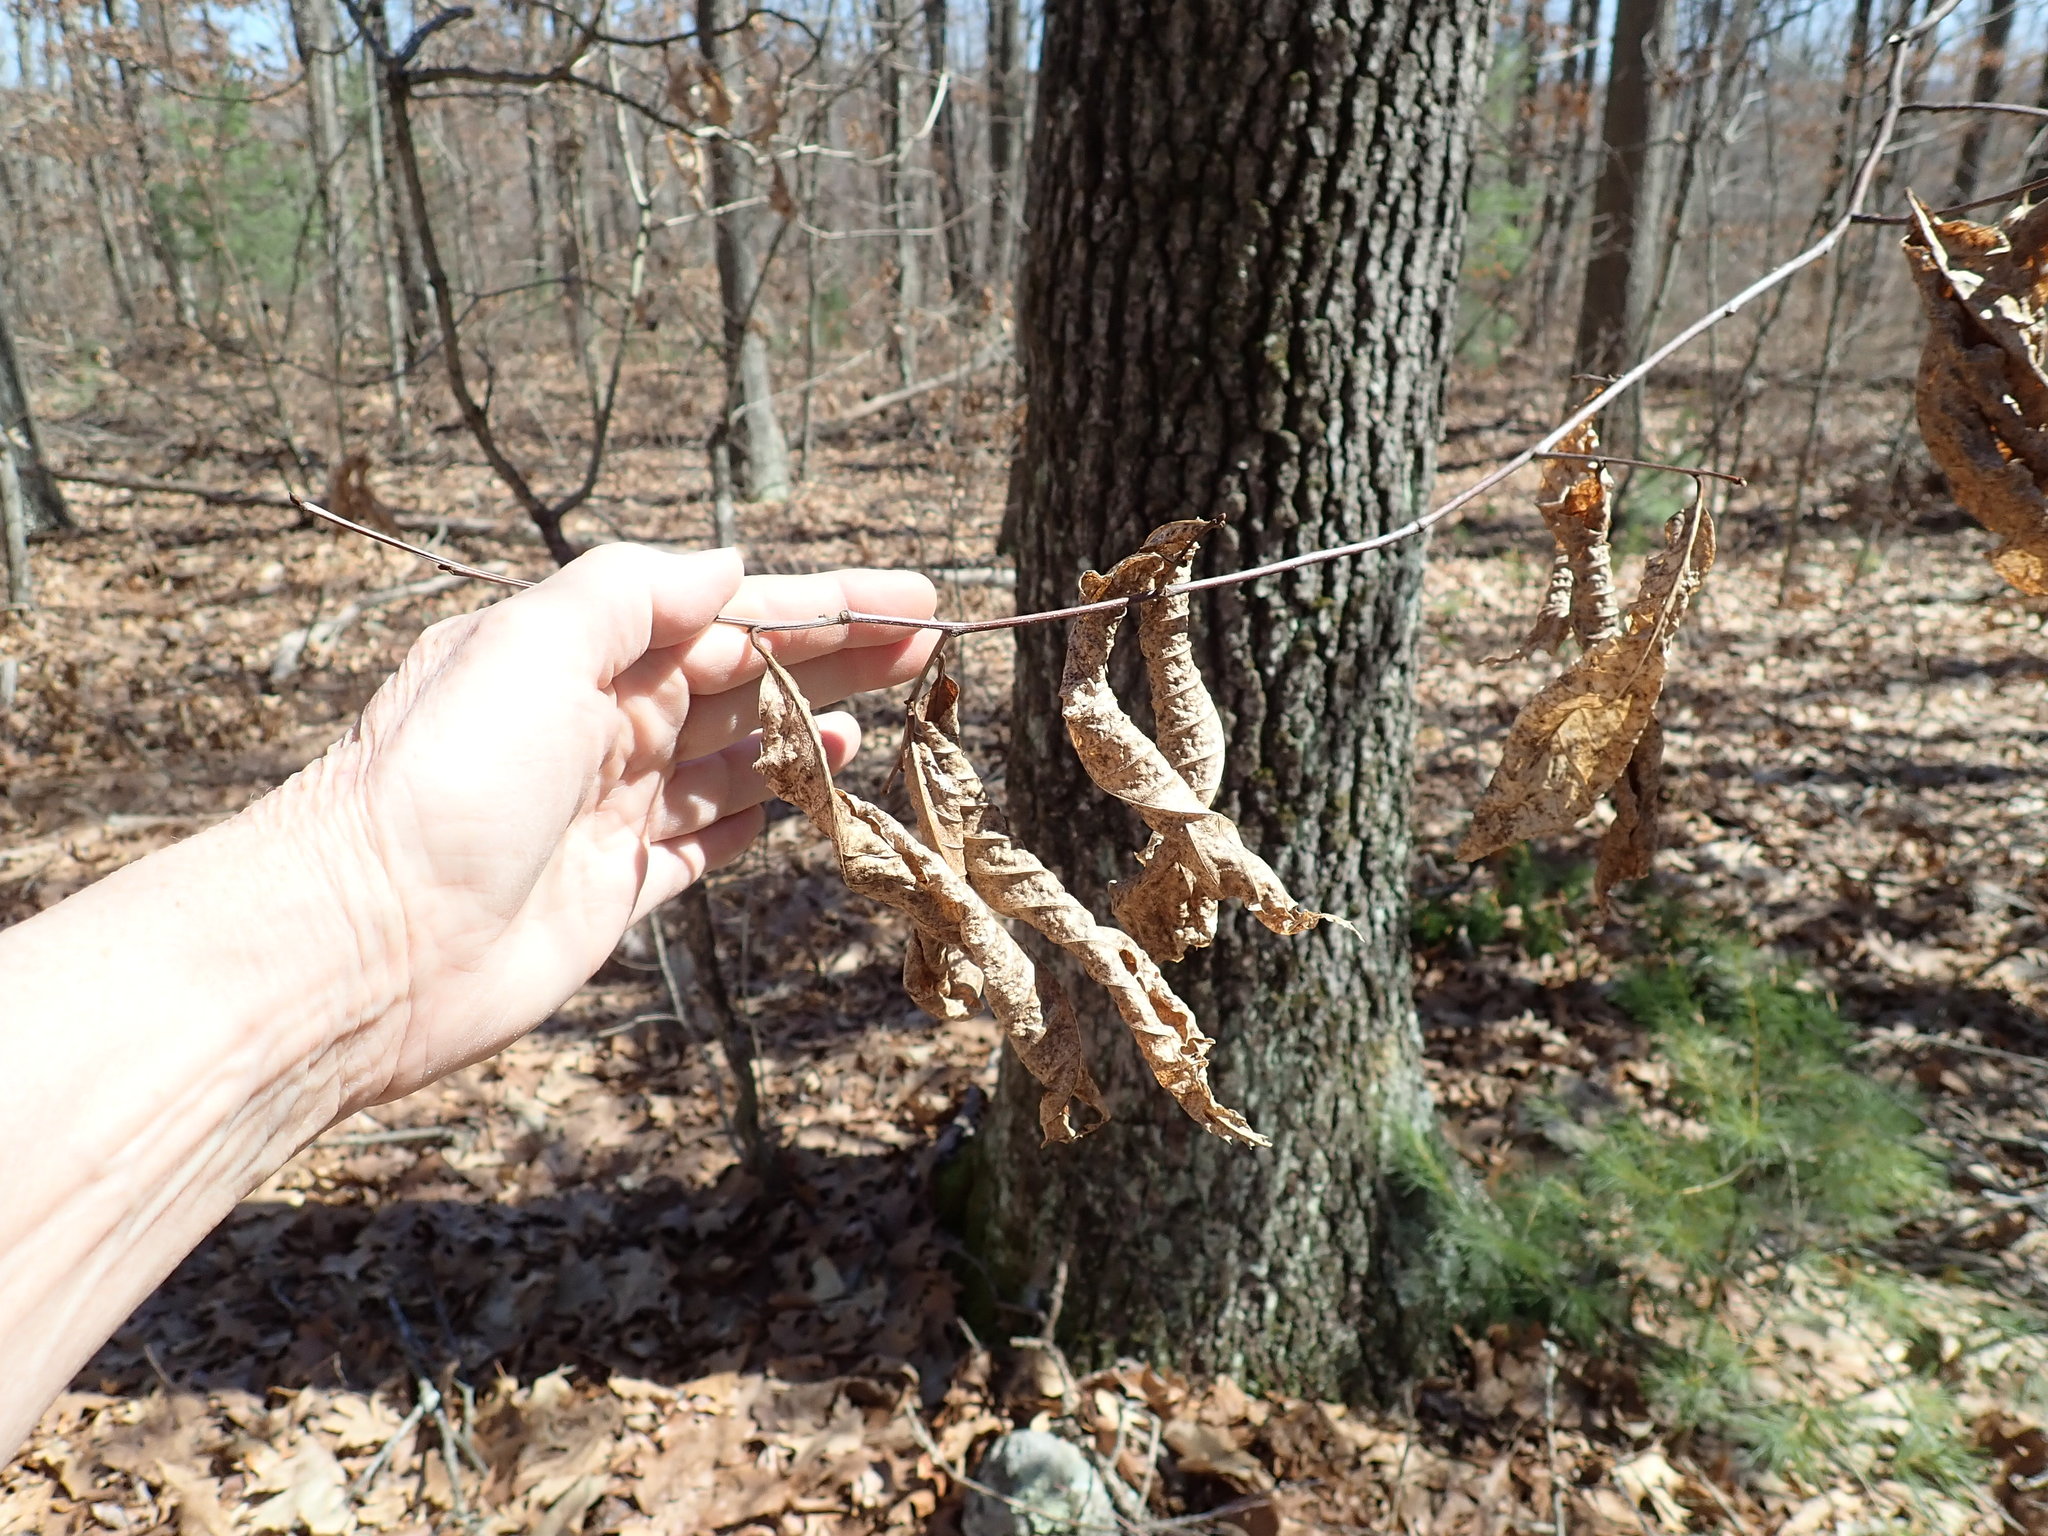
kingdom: Plantae
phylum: Tracheophyta
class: Magnoliopsida
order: Fagales
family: Fagaceae
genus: Castanea
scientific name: Castanea dentata
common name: American chestnut
